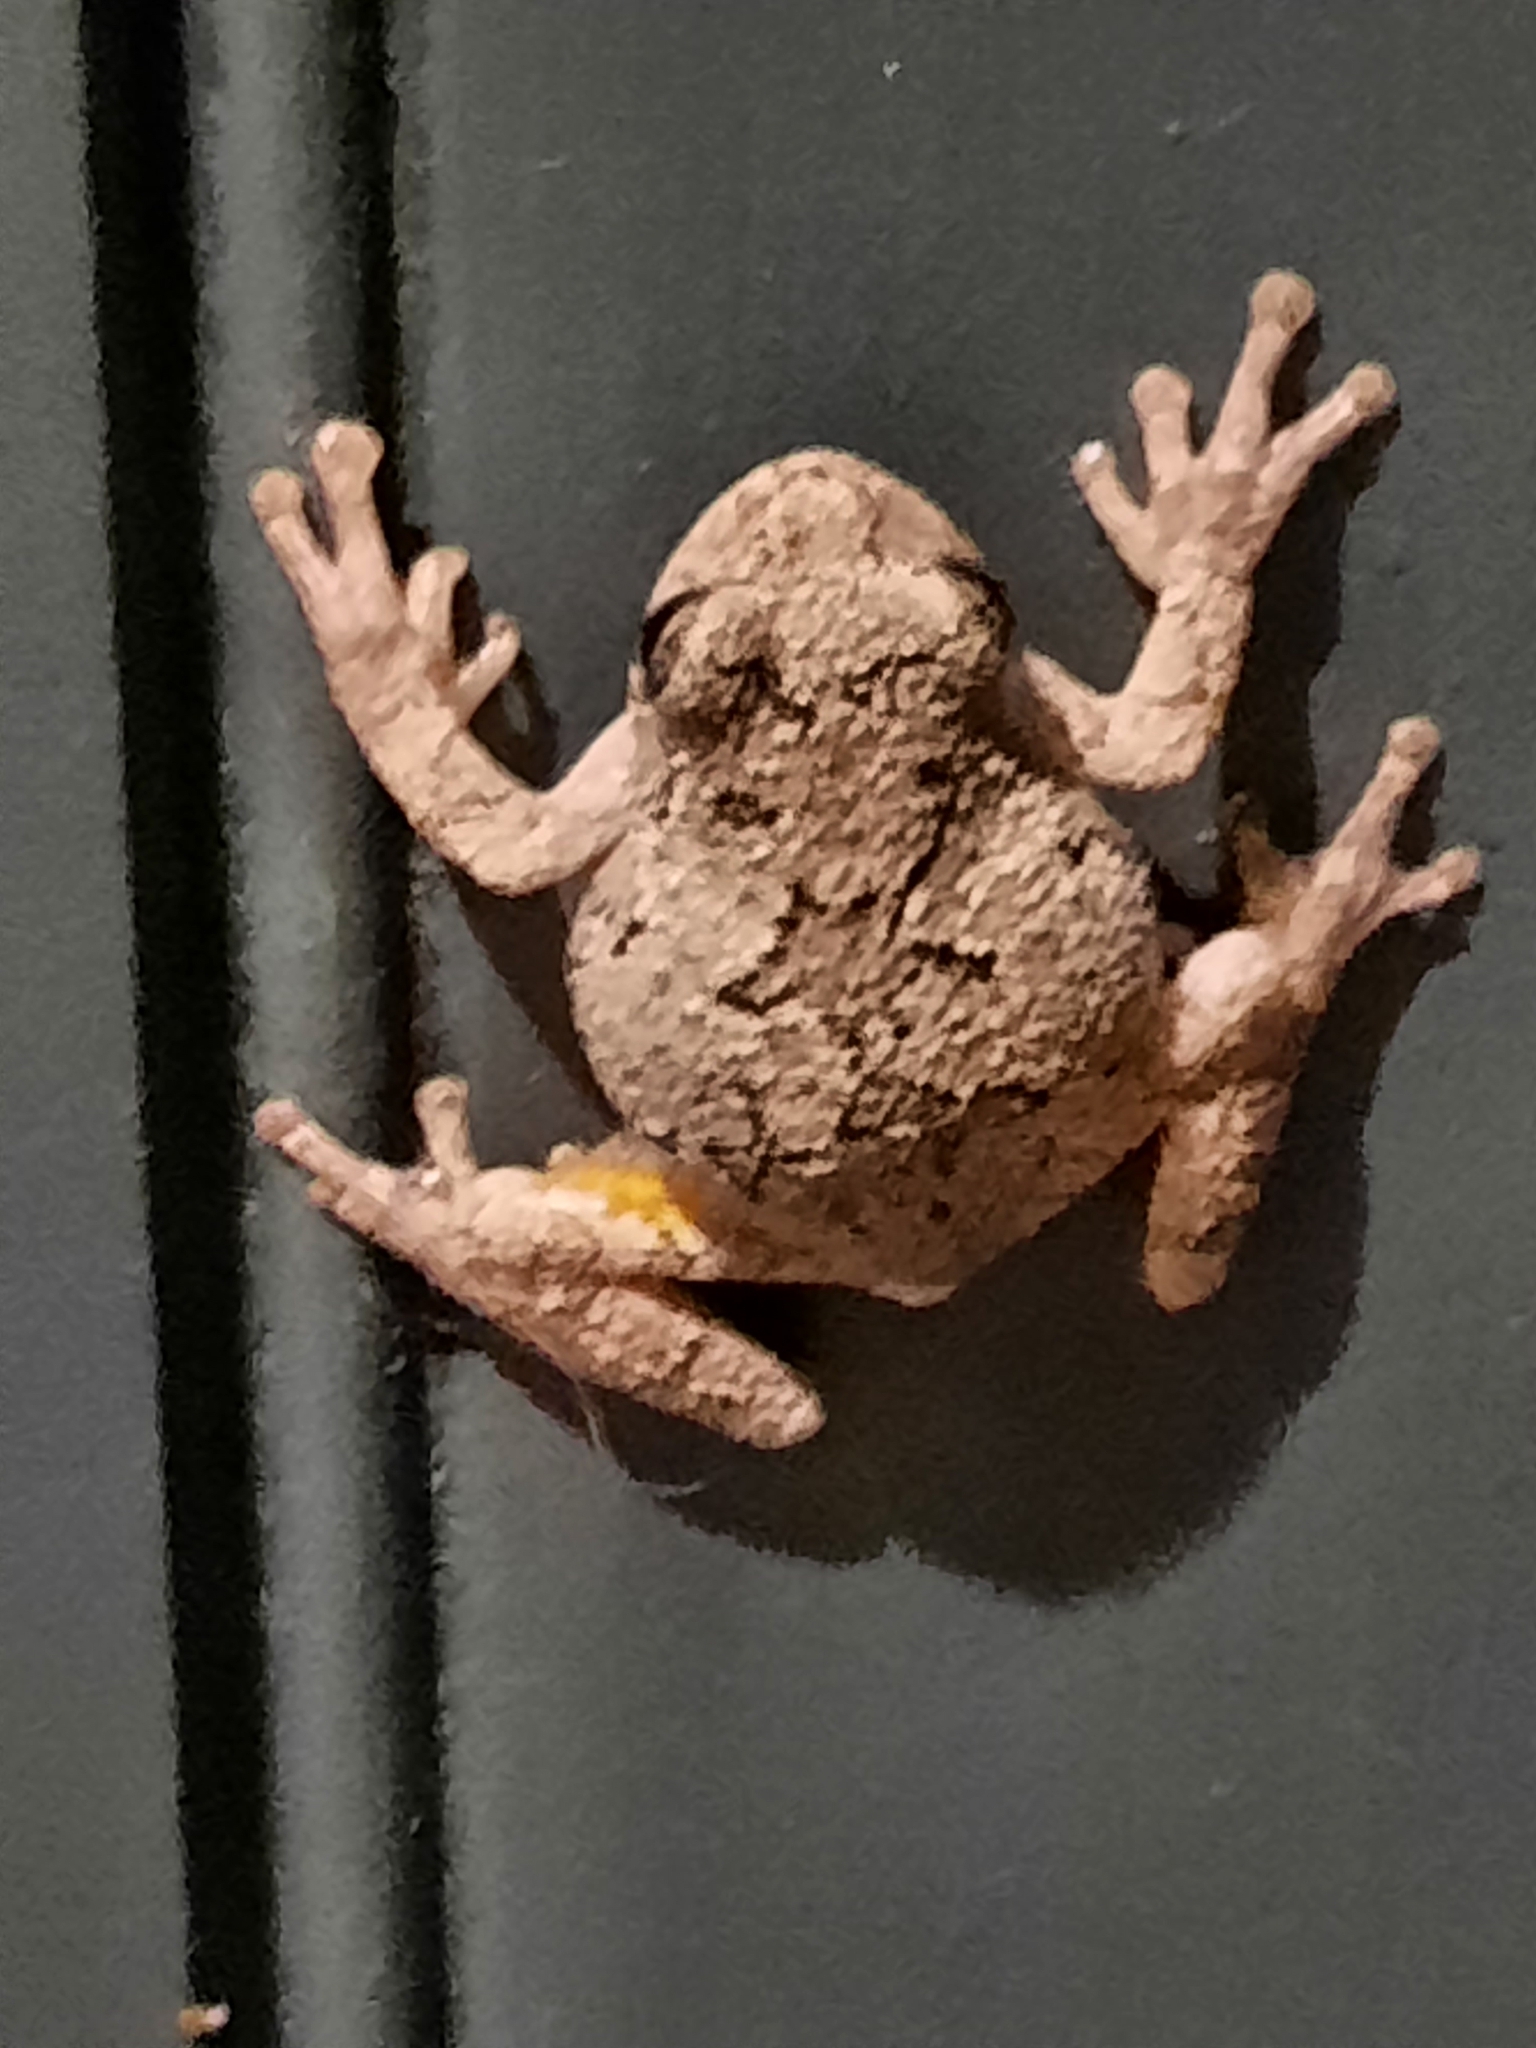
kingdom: Animalia
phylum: Chordata
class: Amphibia
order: Anura
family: Hylidae
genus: Dryophytes
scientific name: Dryophytes versicolor
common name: Gray treefrog
